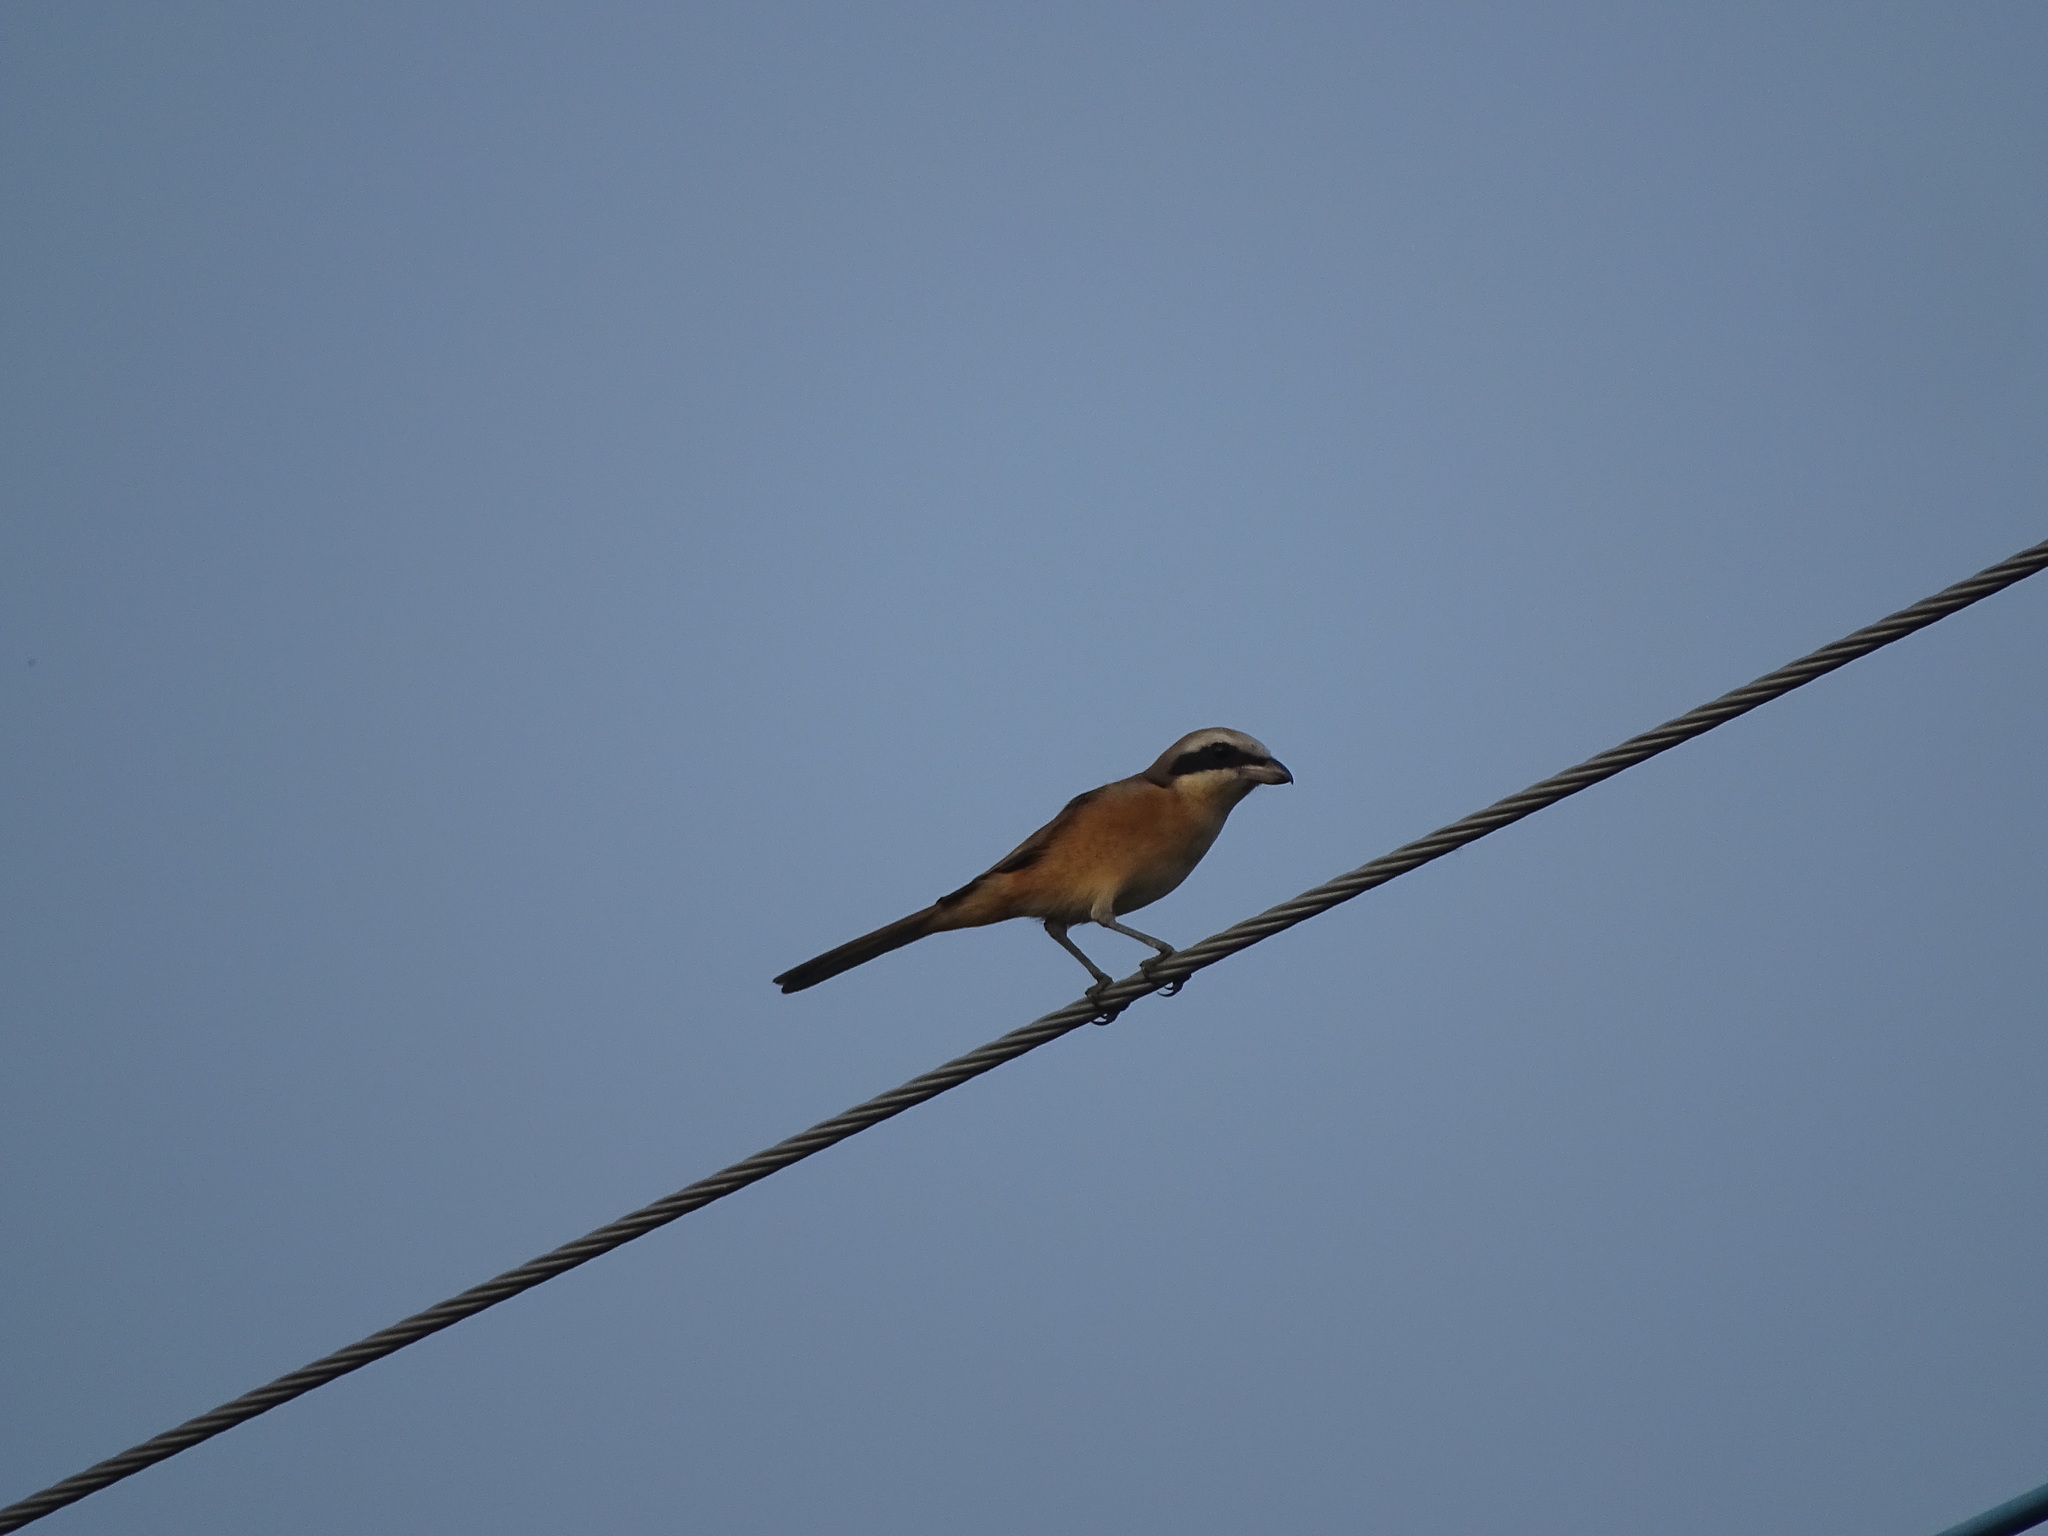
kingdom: Animalia
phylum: Chordata
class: Aves
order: Passeriformes
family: Laniidae
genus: Lanius
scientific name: Lanius cristatus
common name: Brown shrike
